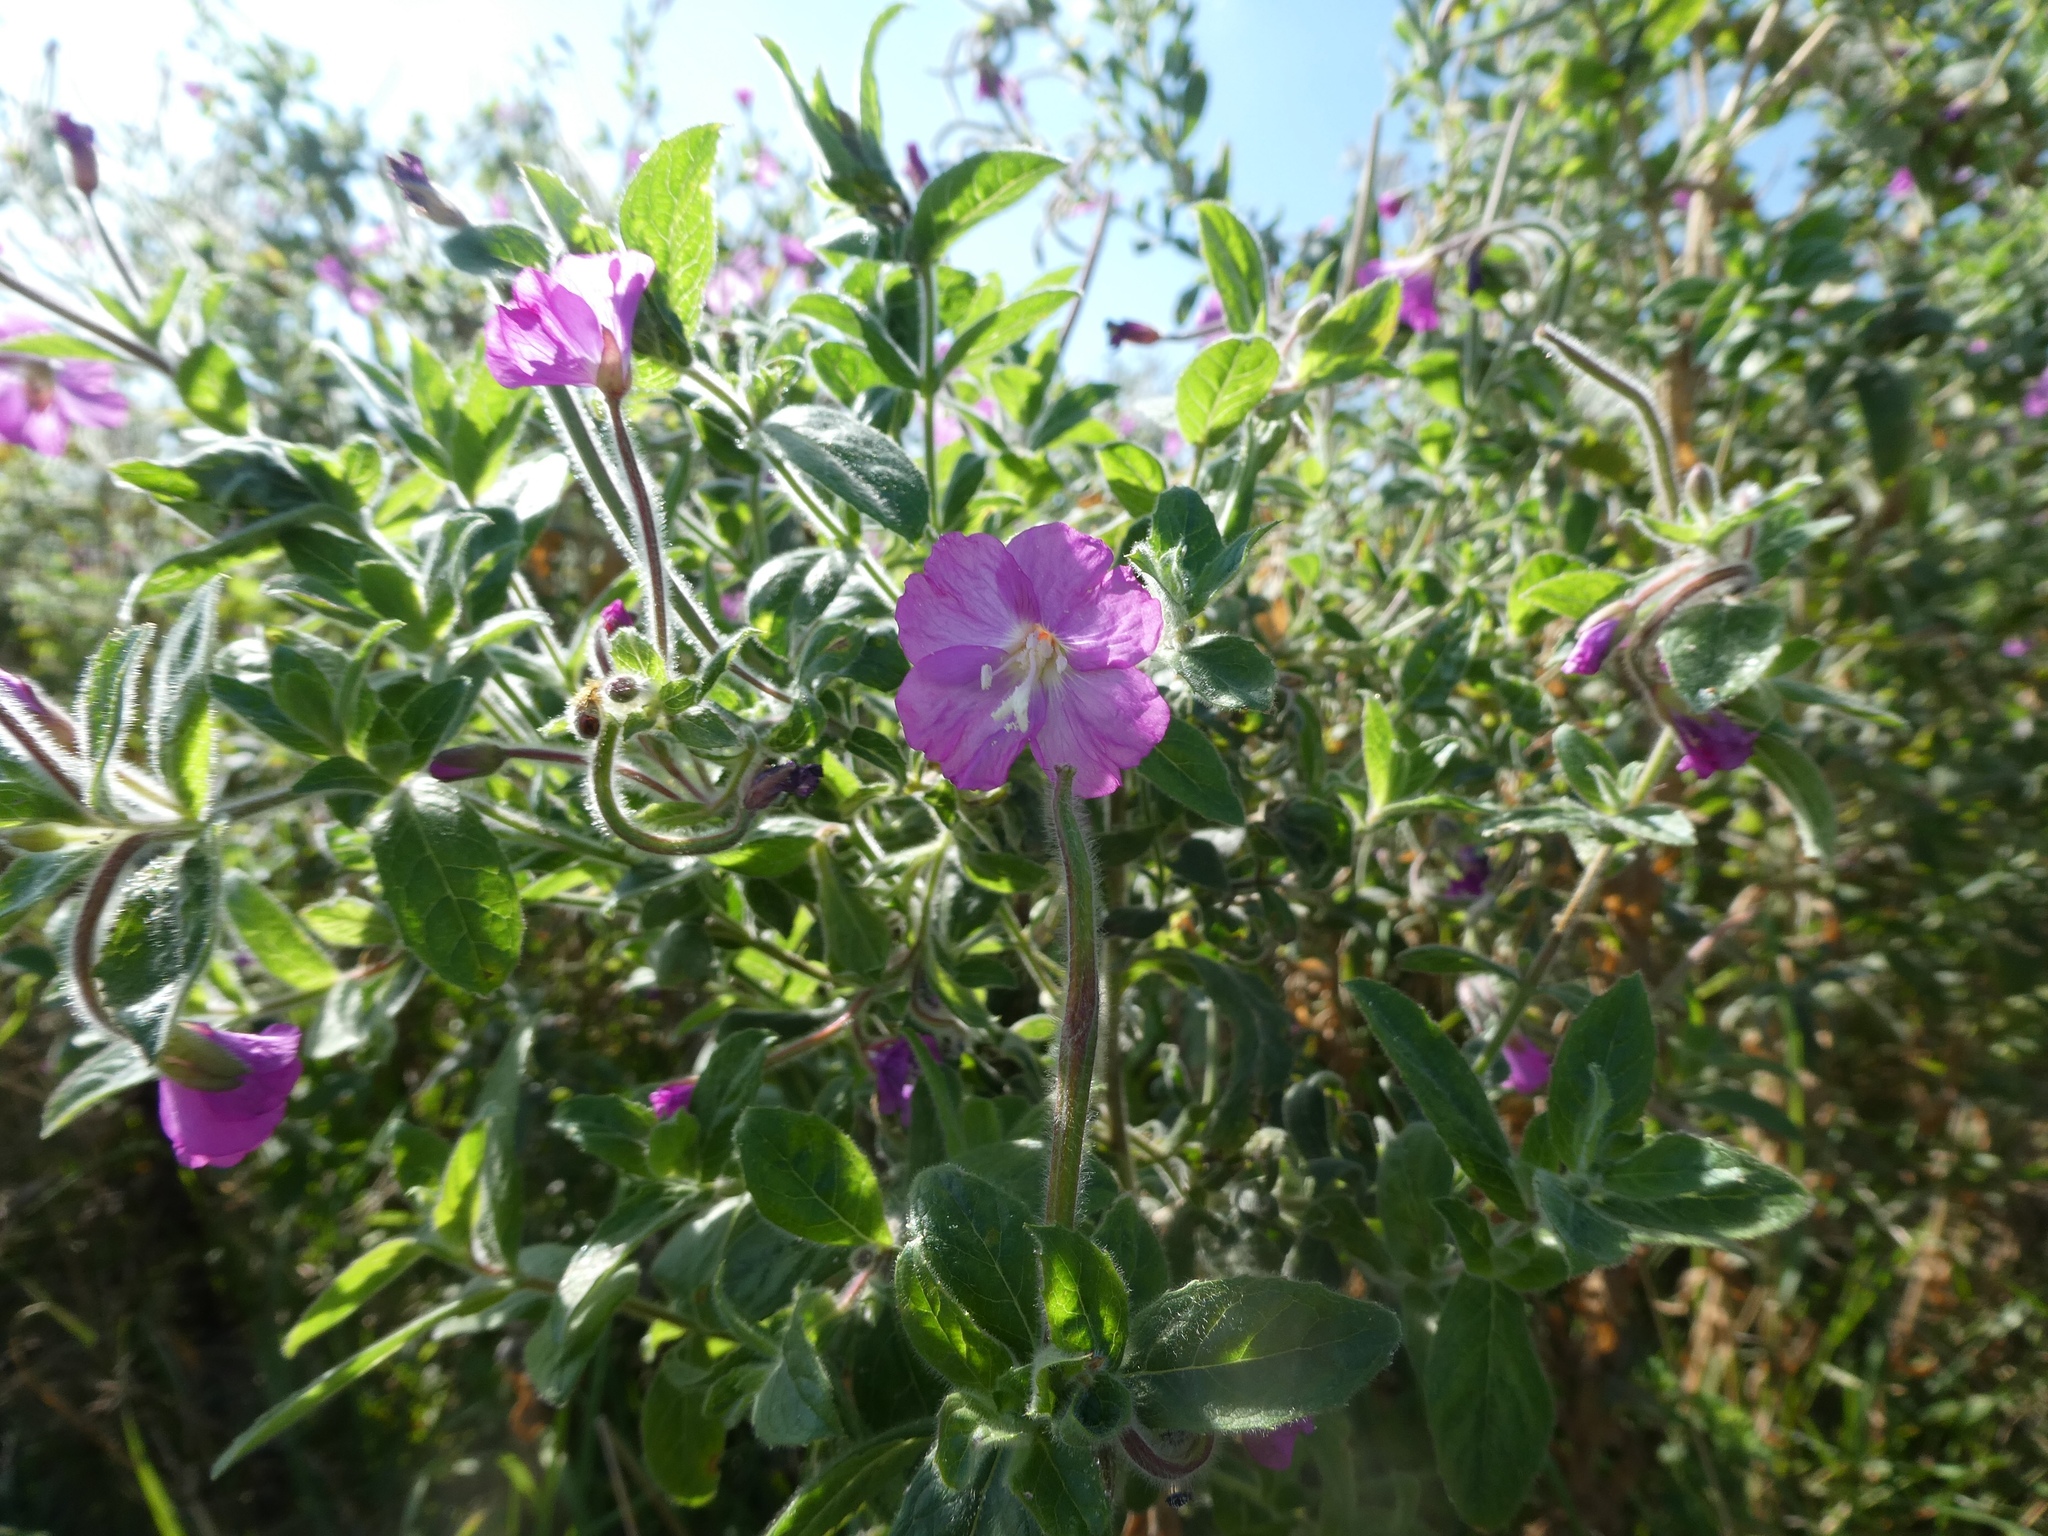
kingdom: Plantae
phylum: Tracheophyta
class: Magnoliopsida
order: Myrtales
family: Onagraceae
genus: Epilobium
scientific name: Epilobium hirsutum
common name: Great willowherb
